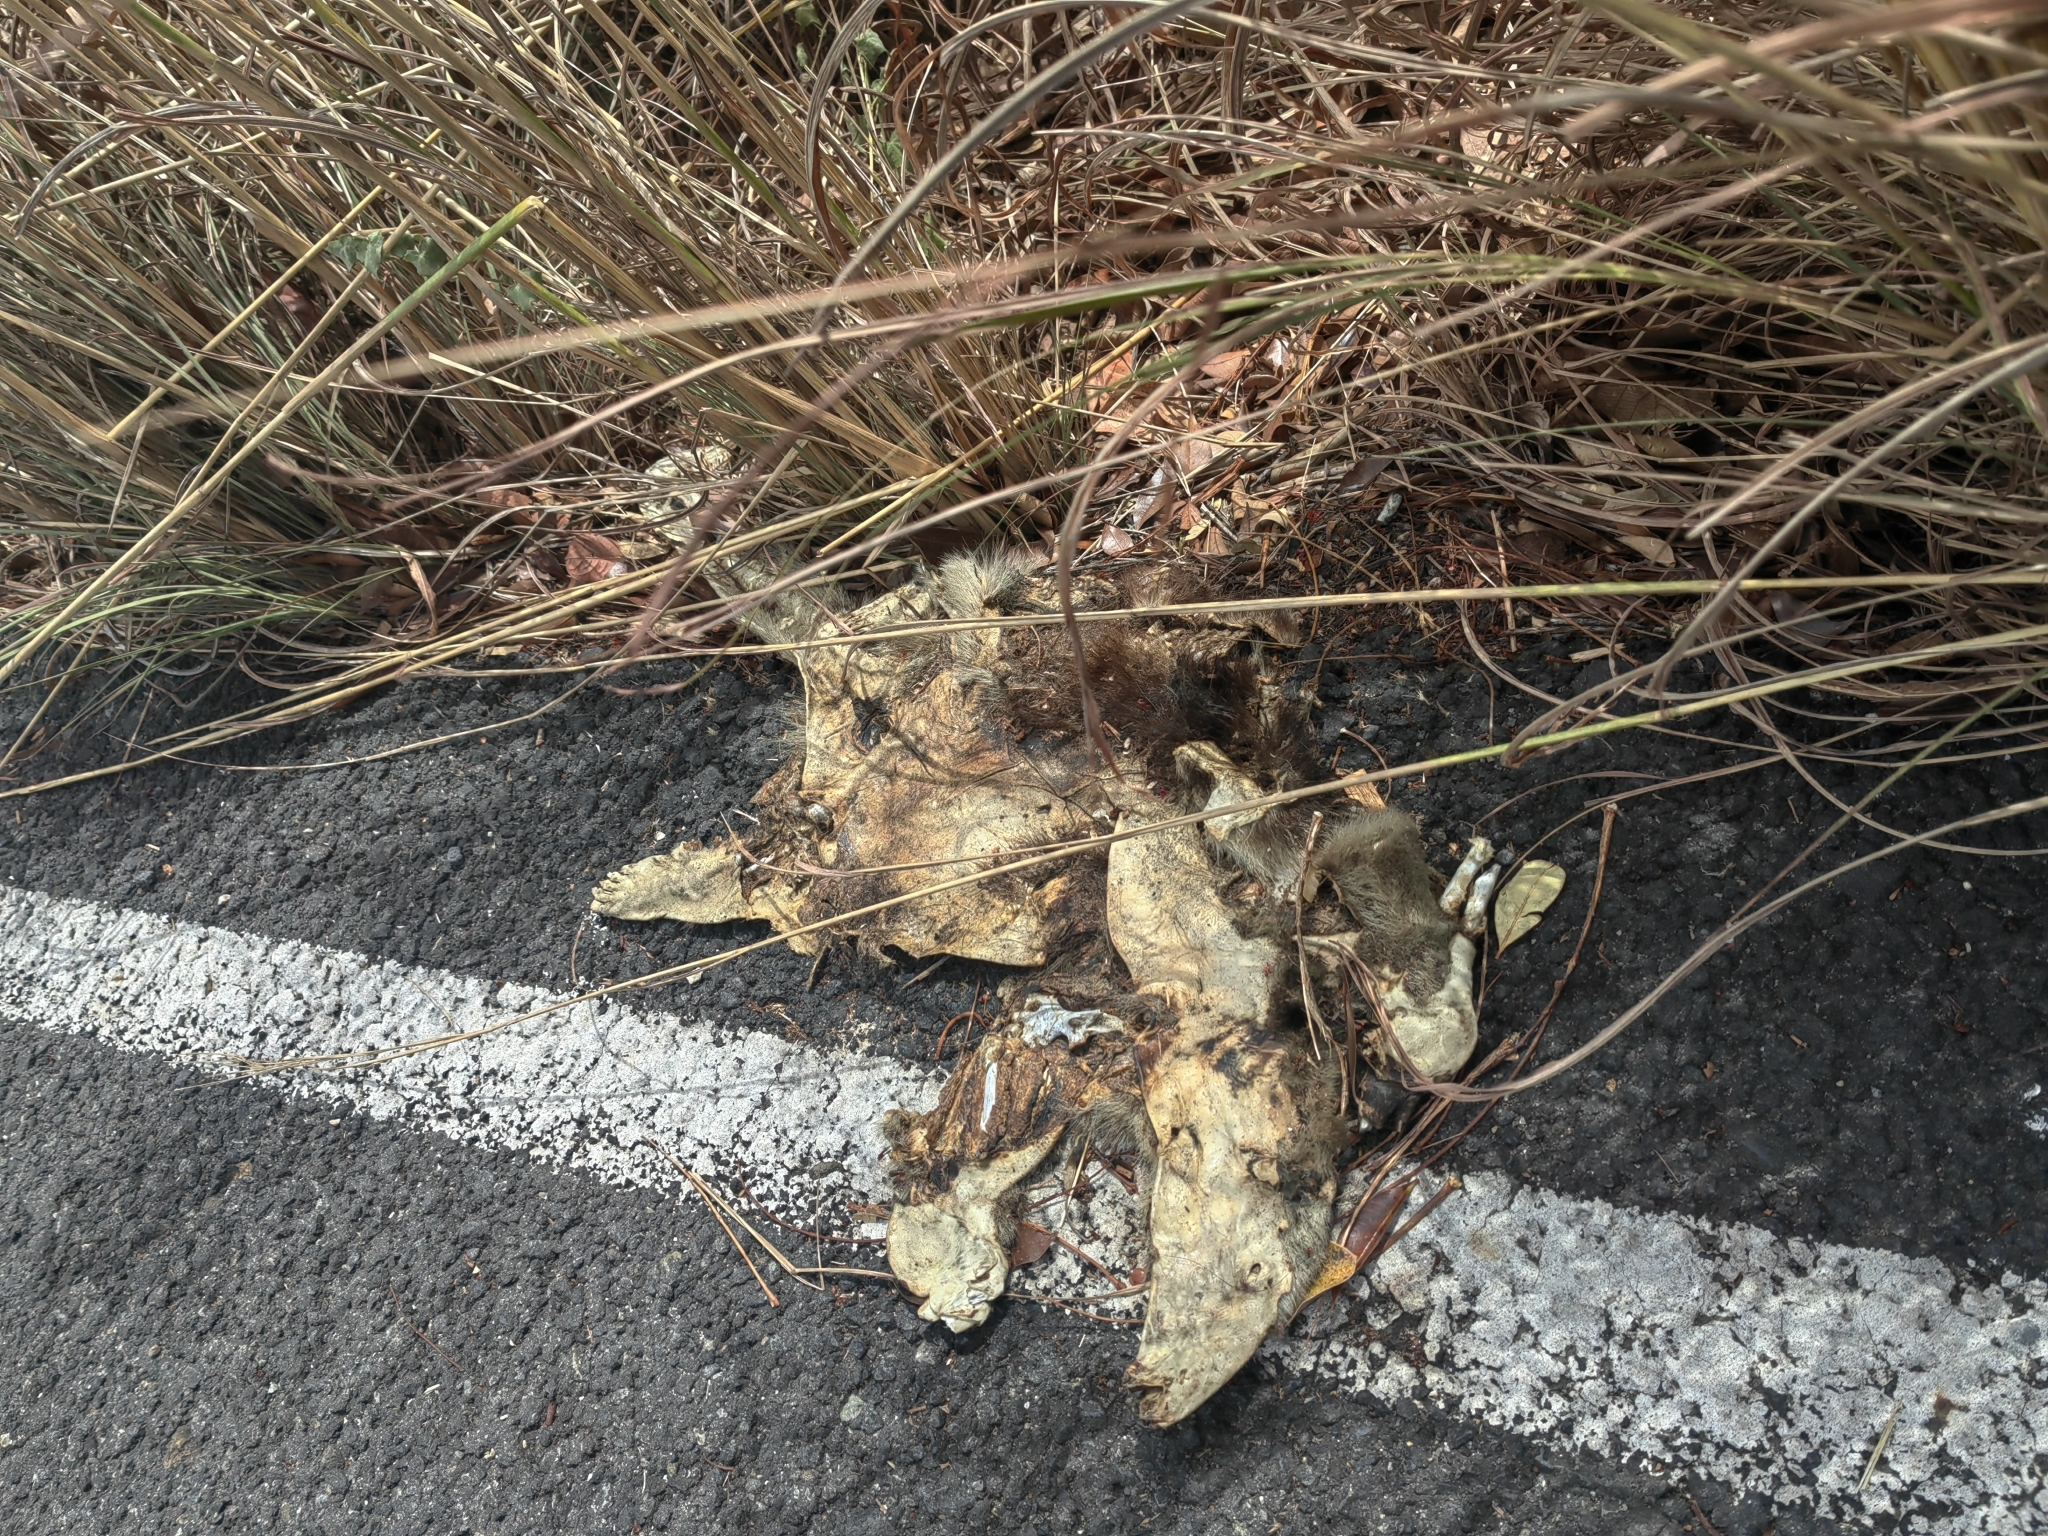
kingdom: Animalia
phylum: Chordata
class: Mammalia
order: Pilosa
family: Myrmecophagidae
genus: Tamandua
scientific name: Tamandua mexicana
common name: Northern tamandua
